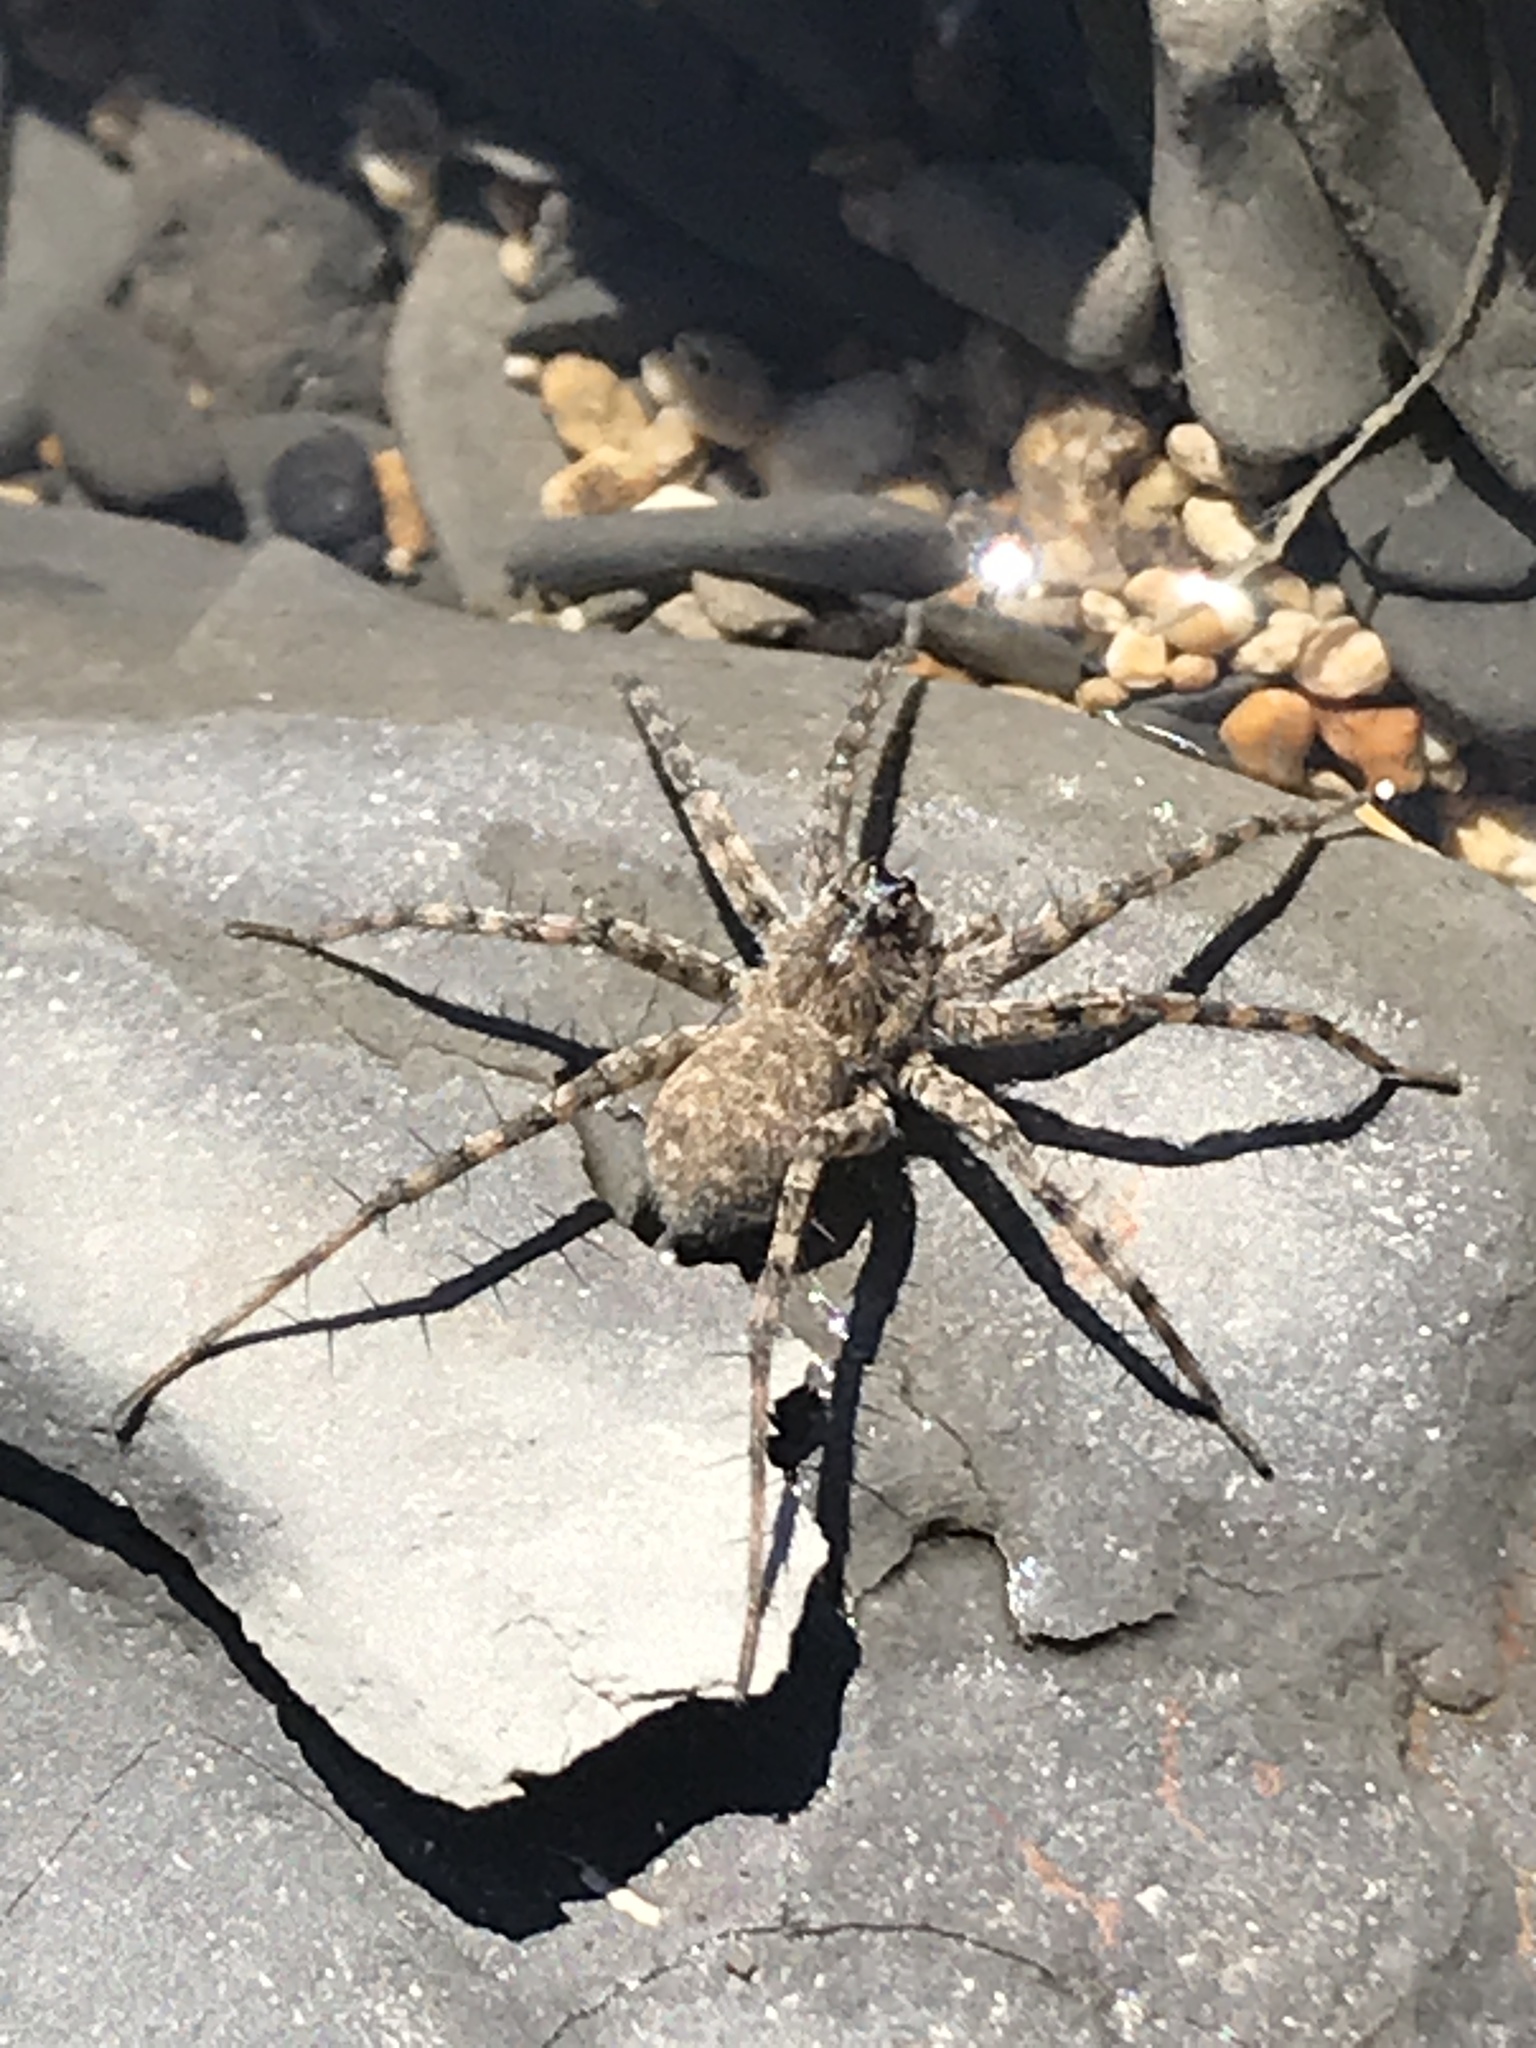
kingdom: Animalia
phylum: Arthropoda
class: Arachnida
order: Araneae
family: Lycosidae
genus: Pardosa
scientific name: Pardosa mercurialis
